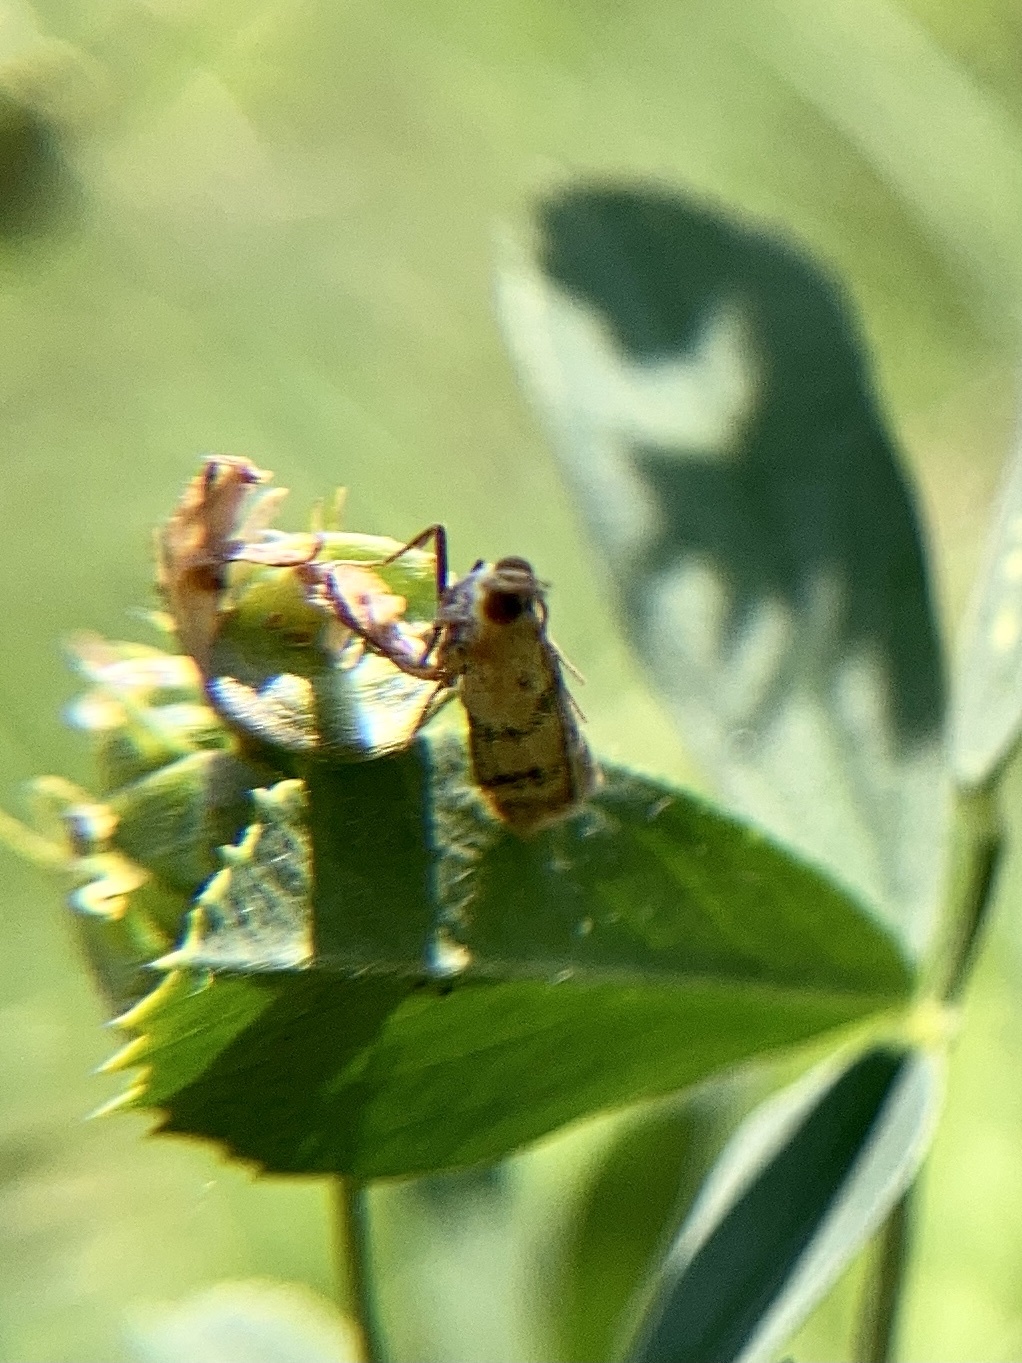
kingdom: Animalia
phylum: Arthropoda
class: Insecta
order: Lepidoptera
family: Pyralidae
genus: Homoeosoma
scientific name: Homoeosoma sinuella
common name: Twin-barred knot-horn
